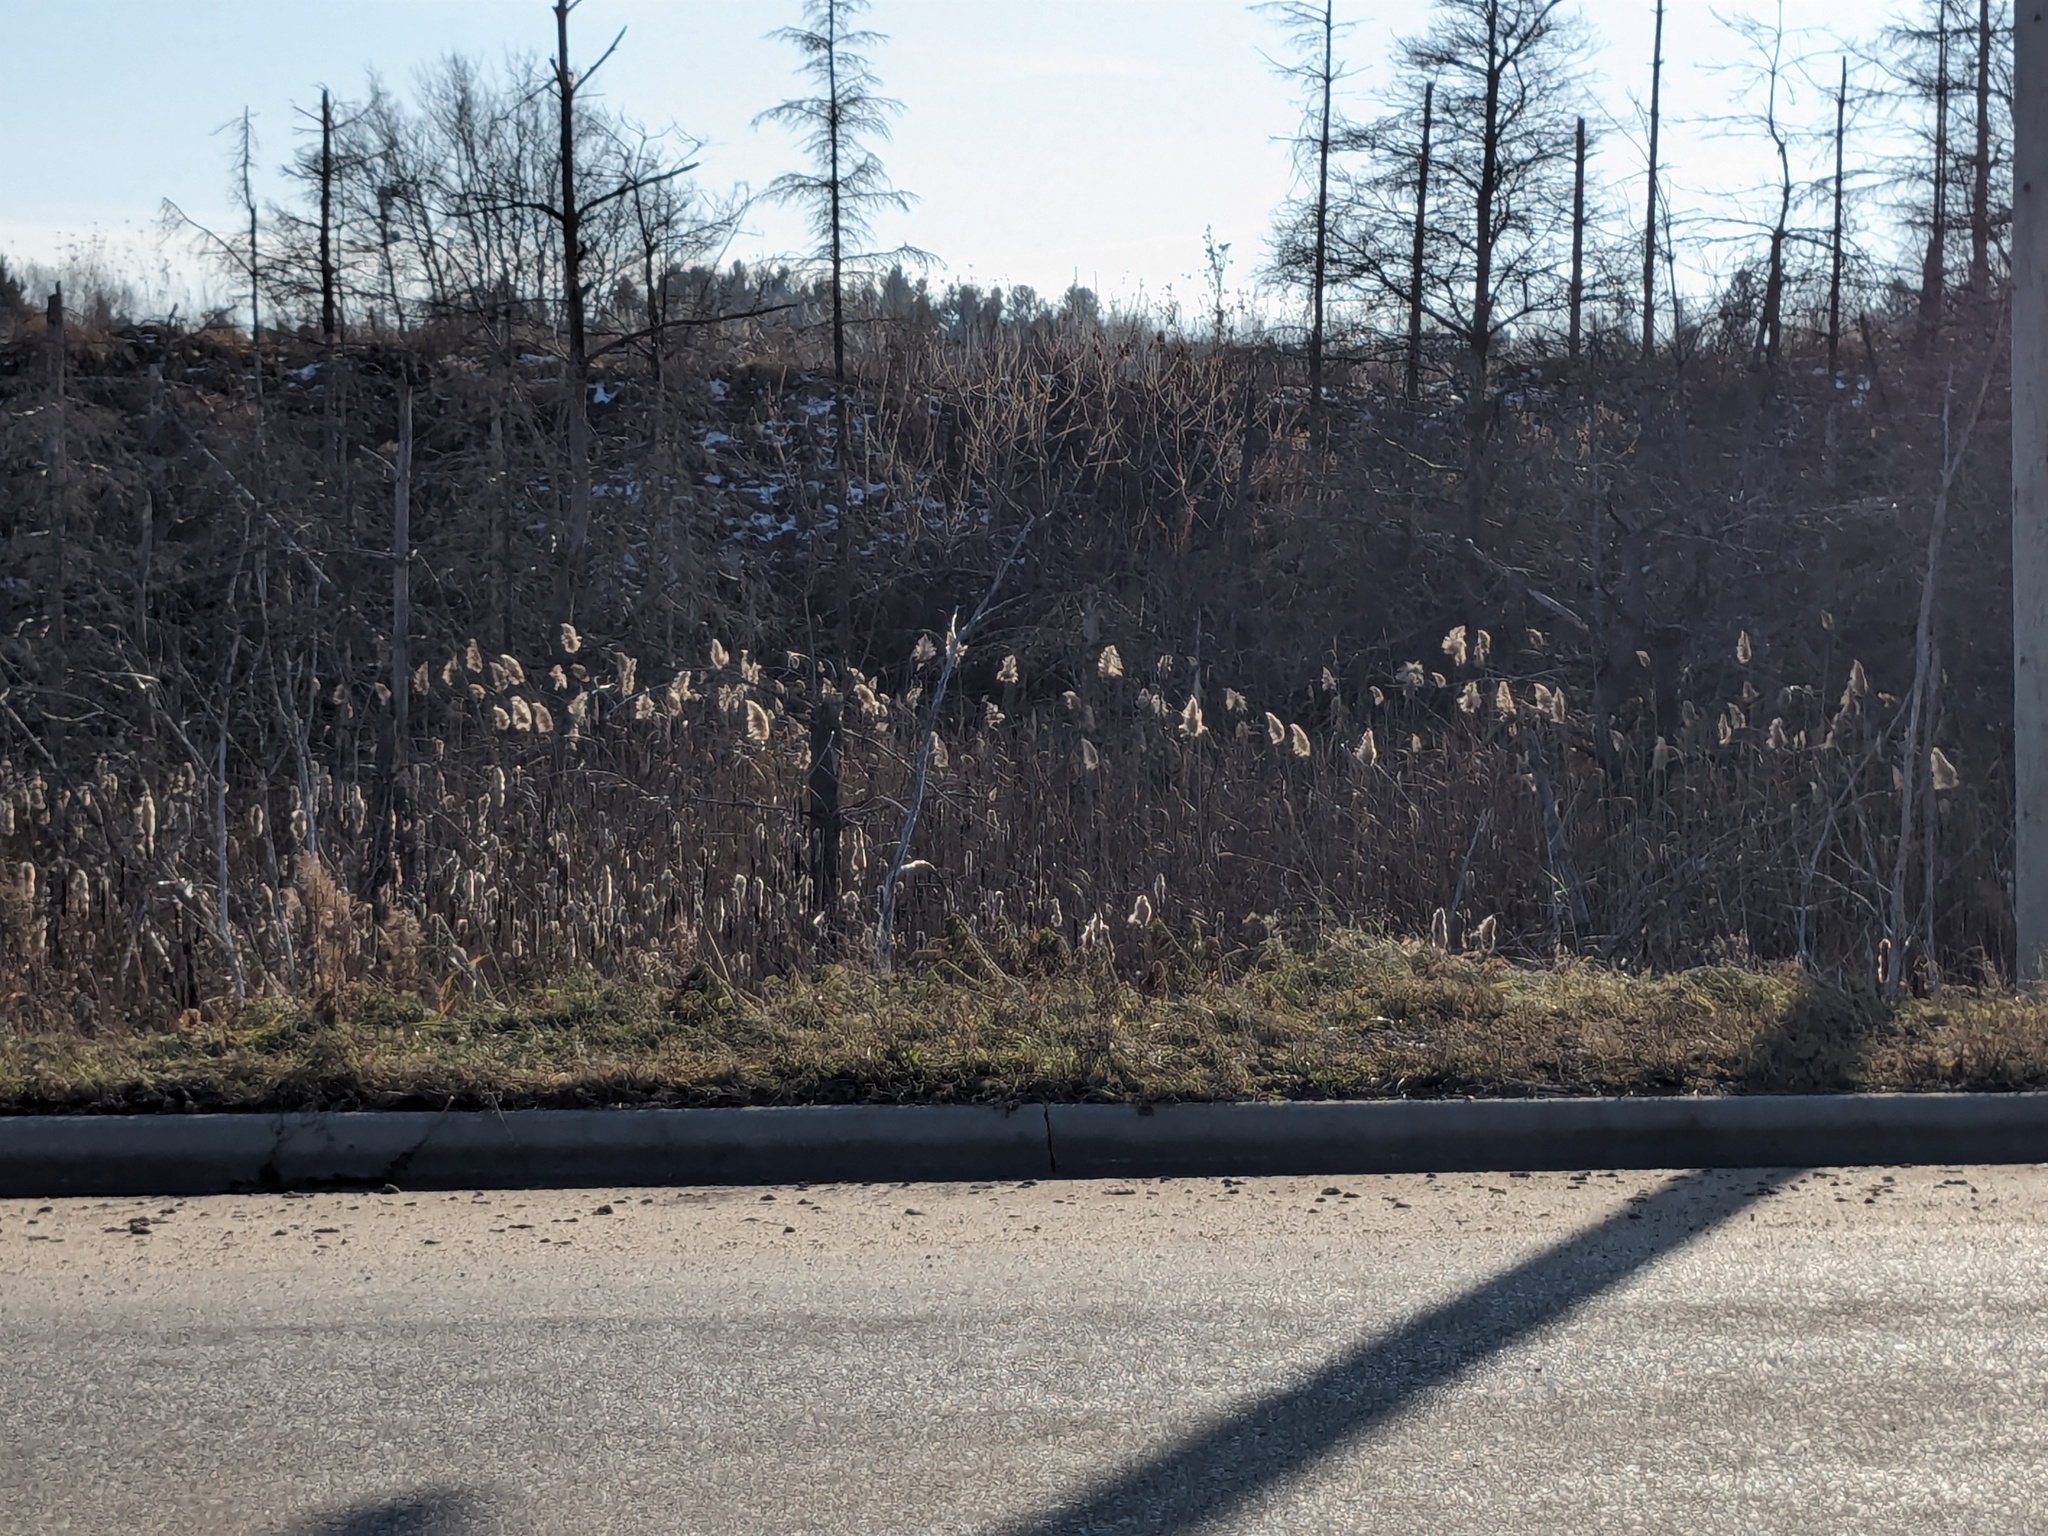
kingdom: Plantae
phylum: Tracheophyta
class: Liliopsida
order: Poales
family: Poaceae
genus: Phragmites
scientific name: Phragmites australis
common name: Common reed
